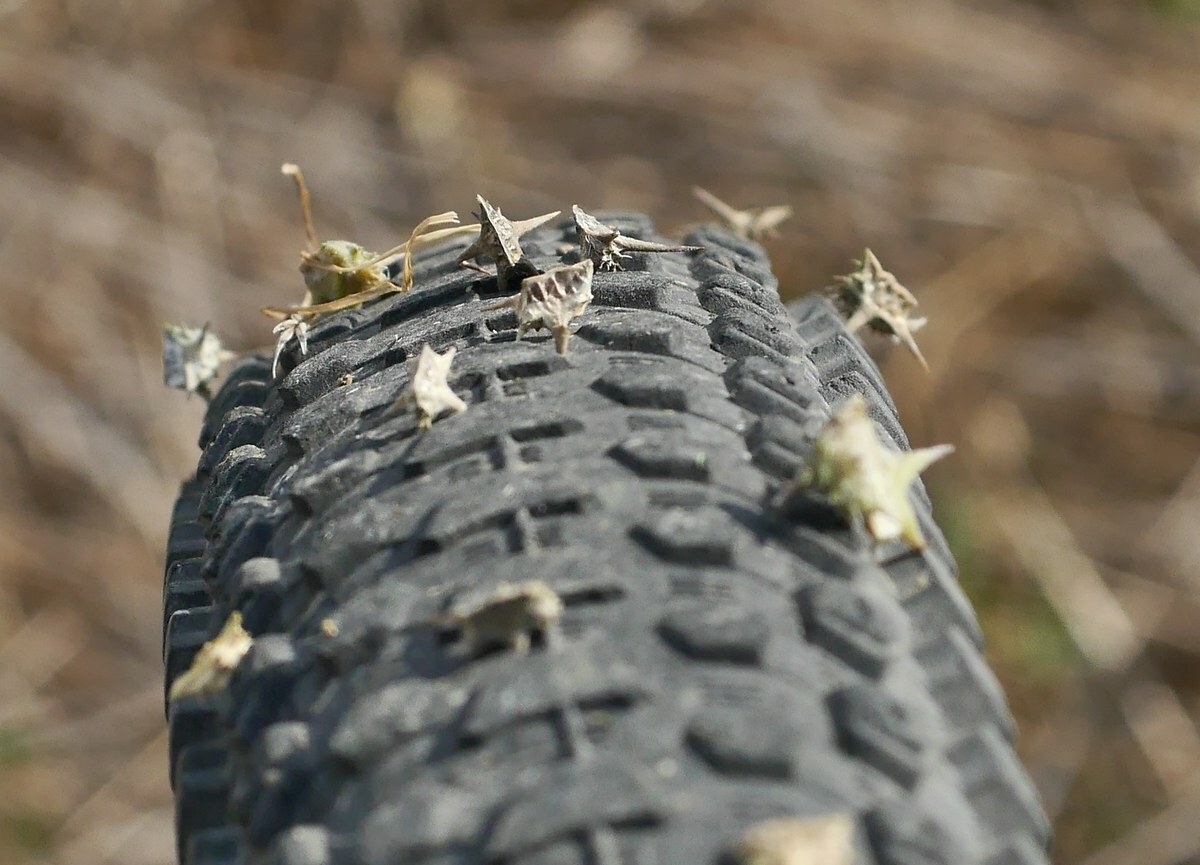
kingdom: Plantae
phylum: Tracheophyta
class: Magnoliopsida
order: Zygophyllales
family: Zygophyllaceae
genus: Tribulus
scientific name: Tribulus terrestris
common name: Puncturevine
